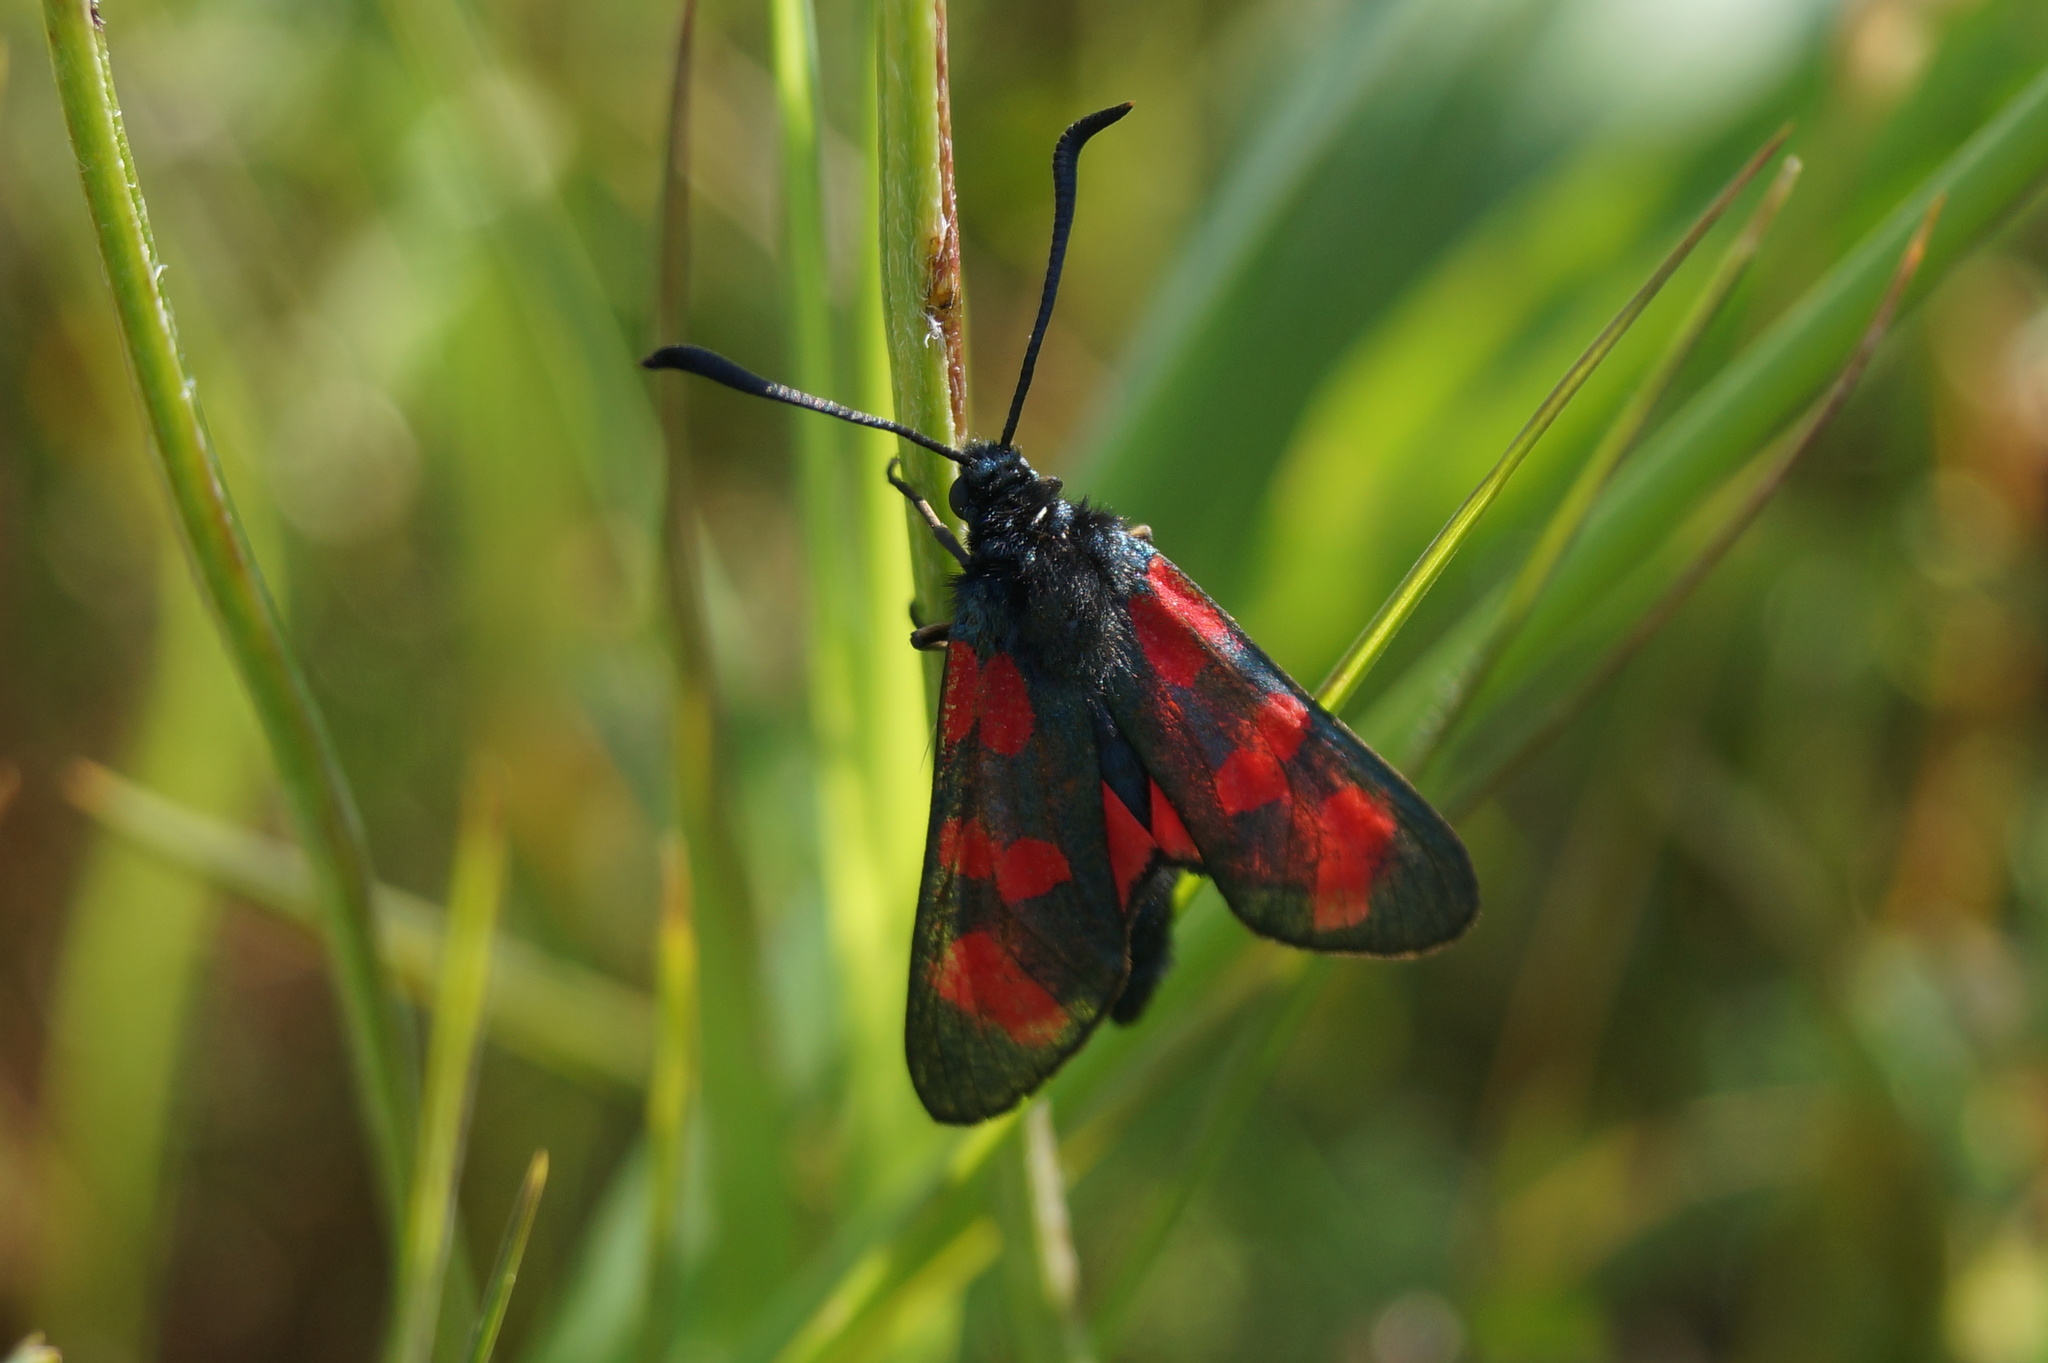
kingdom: Animalia
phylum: Arthropoda
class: Insecta
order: Lepidoptera
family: Zygaenidae
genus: Zygaena
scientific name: Zygaena filipendulae
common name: Six-spot burnet
